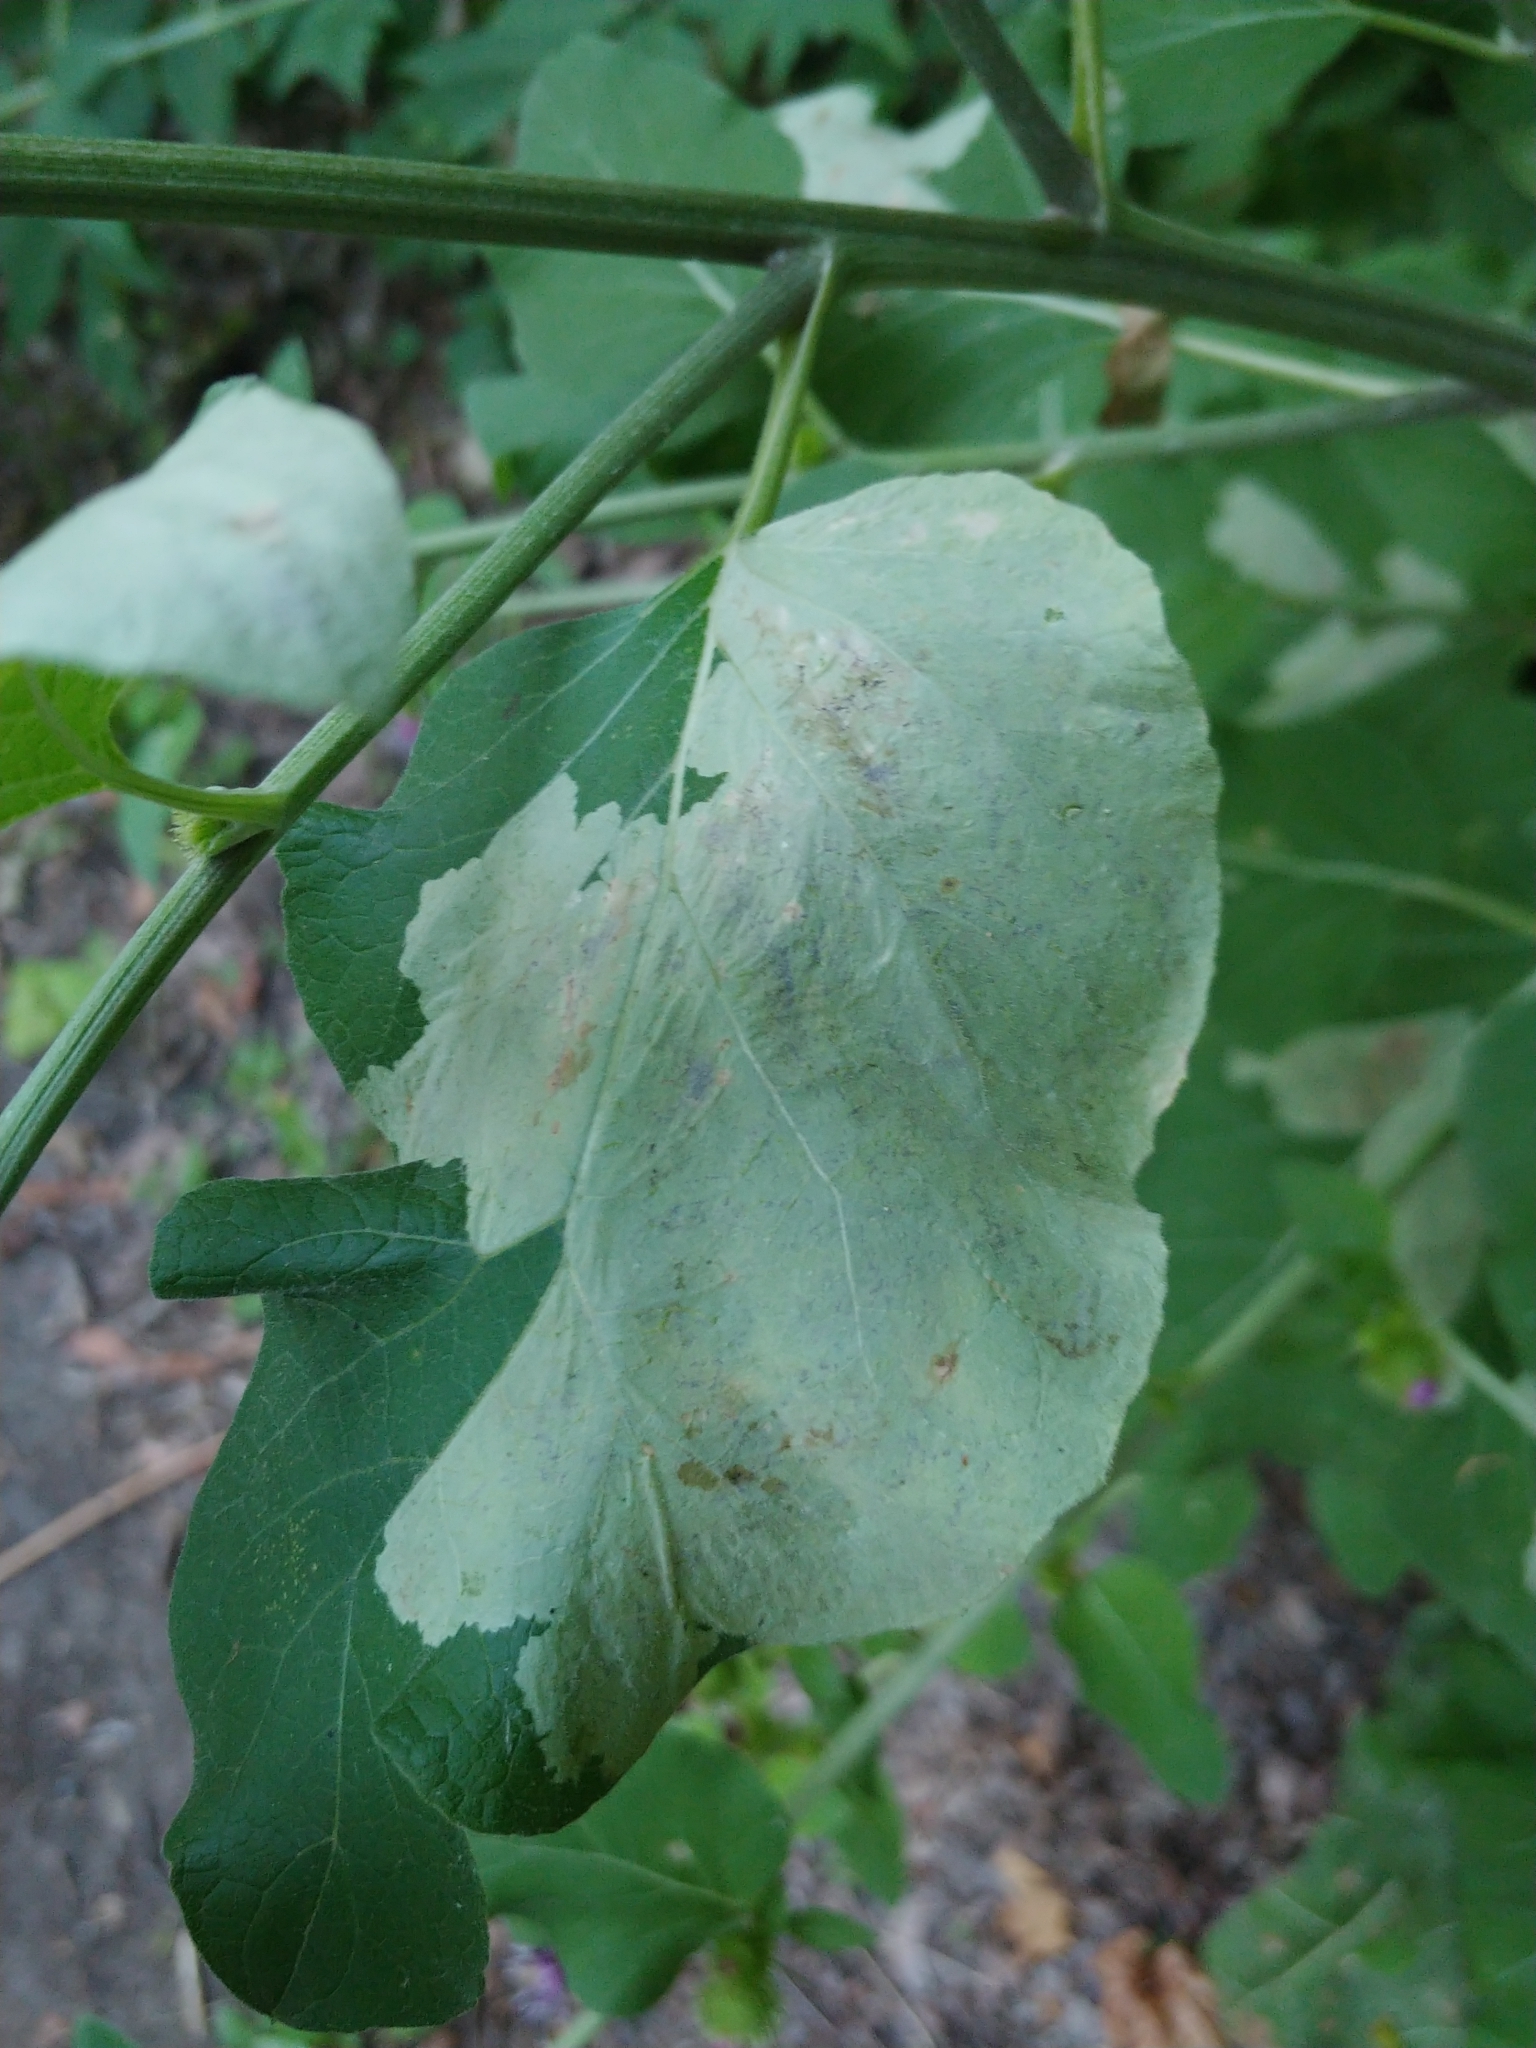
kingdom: Animalia
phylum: Arthropoda
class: Insecta
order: Diptera
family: Agromyzidae
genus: Calycomyza
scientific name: Calycomyza flavinotum
